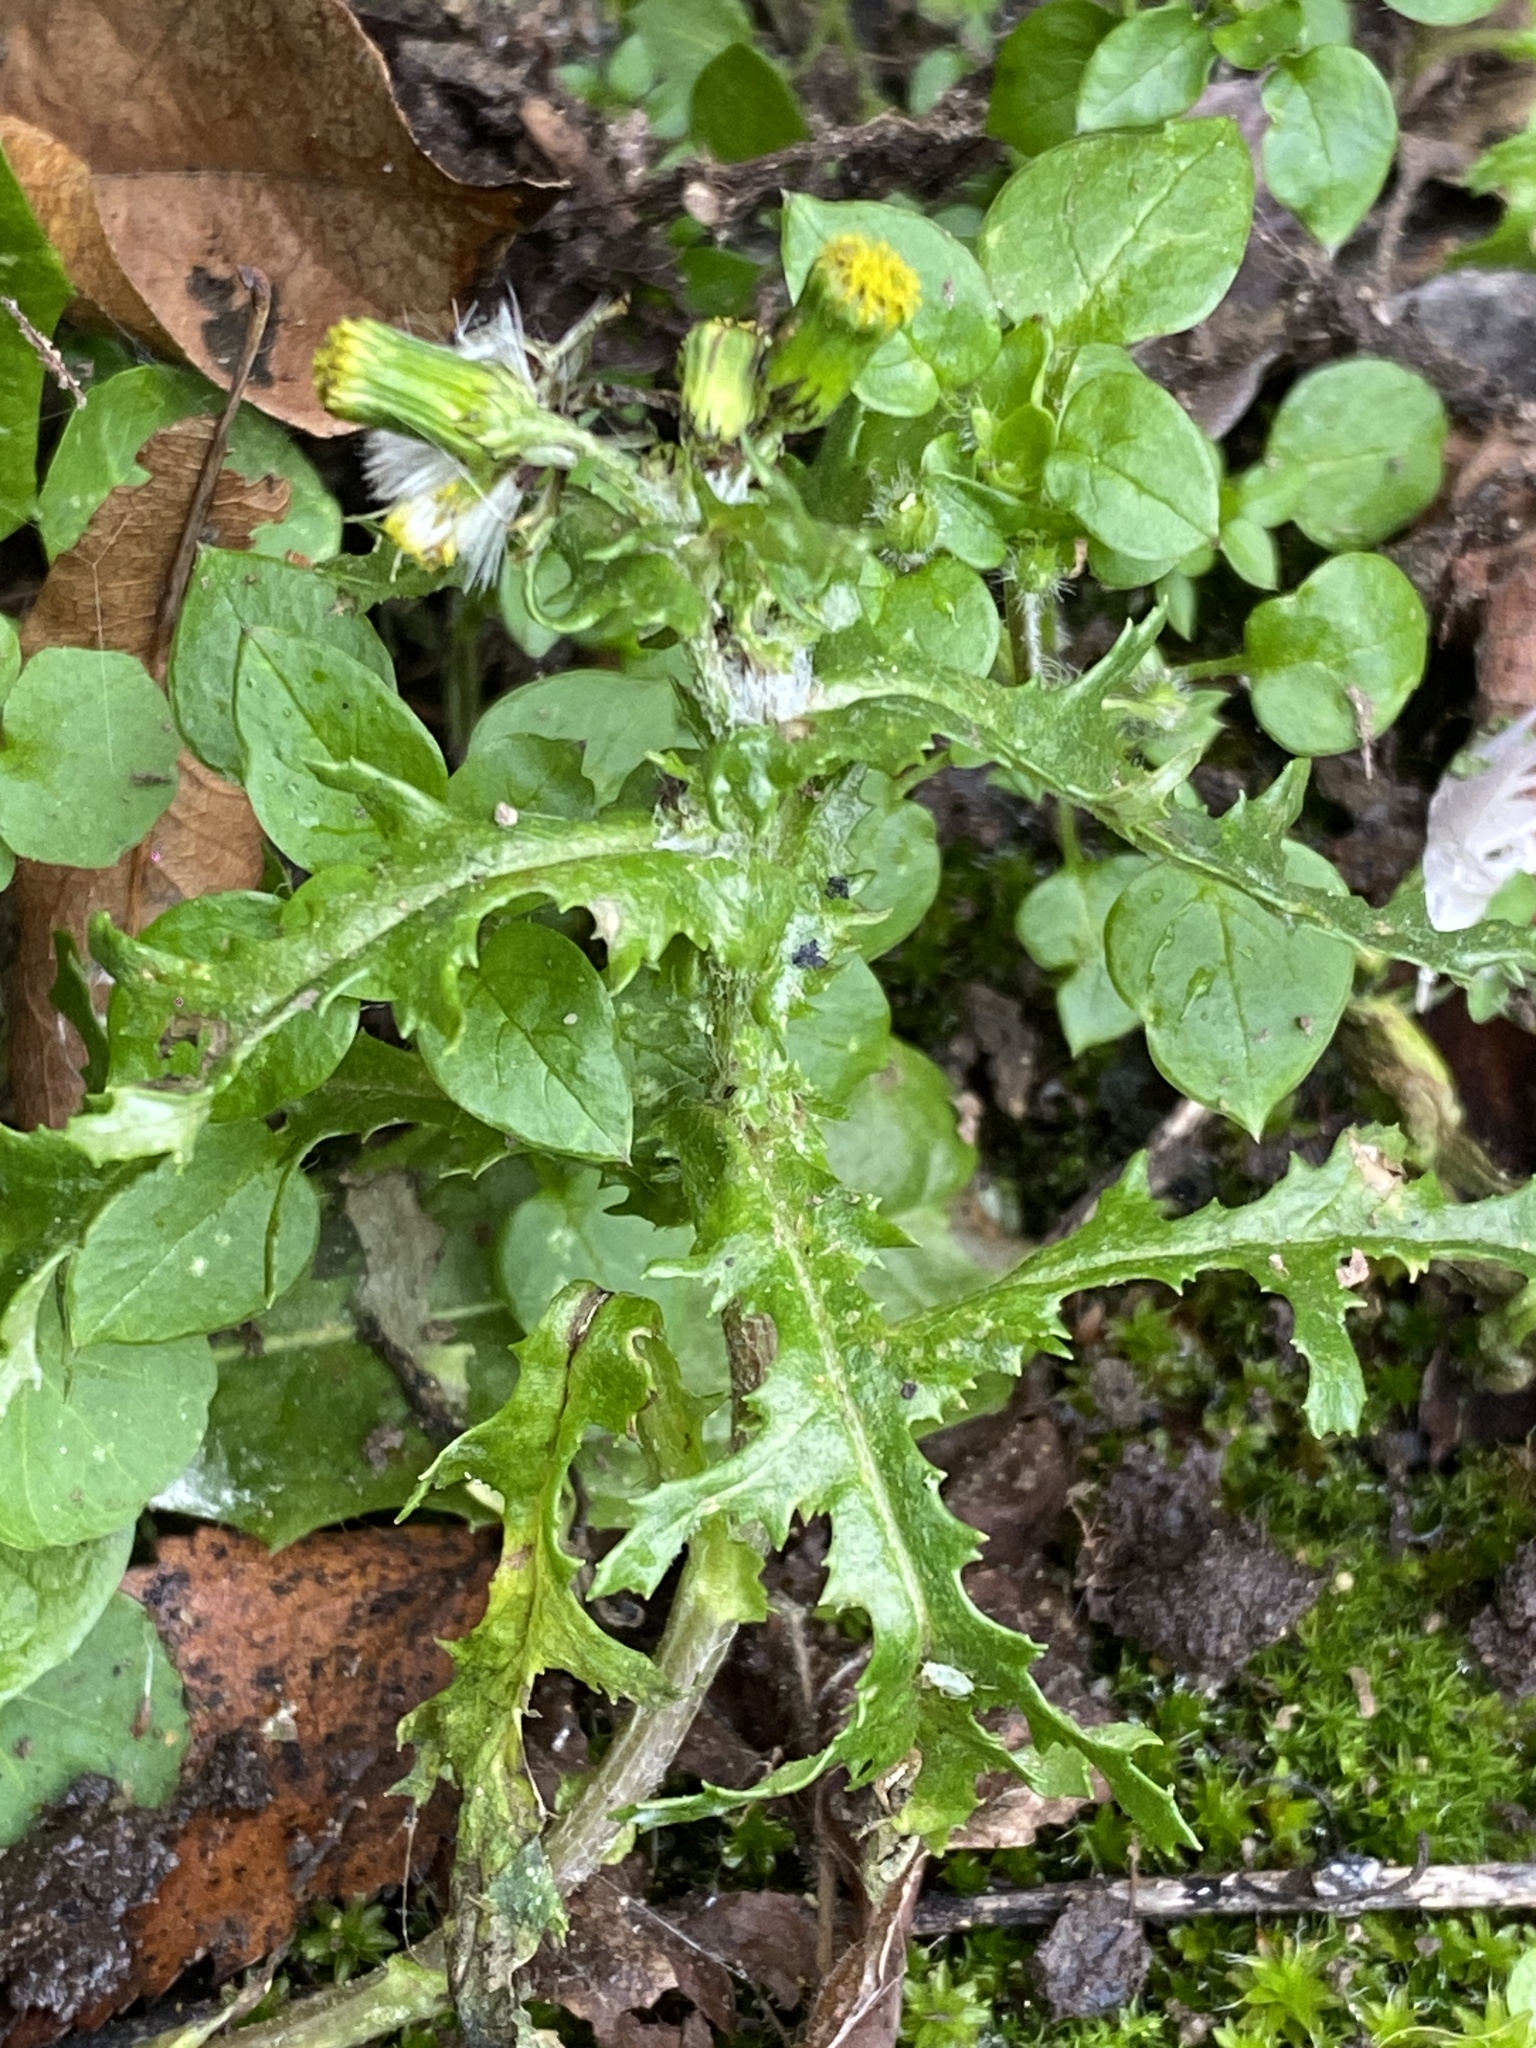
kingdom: Plantae
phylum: Tracheophyta
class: Magnoliopsida
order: Asterales
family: Asteraceae
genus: Senecio
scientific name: Senecio vulgaris
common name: Old-man-in-the-spring
